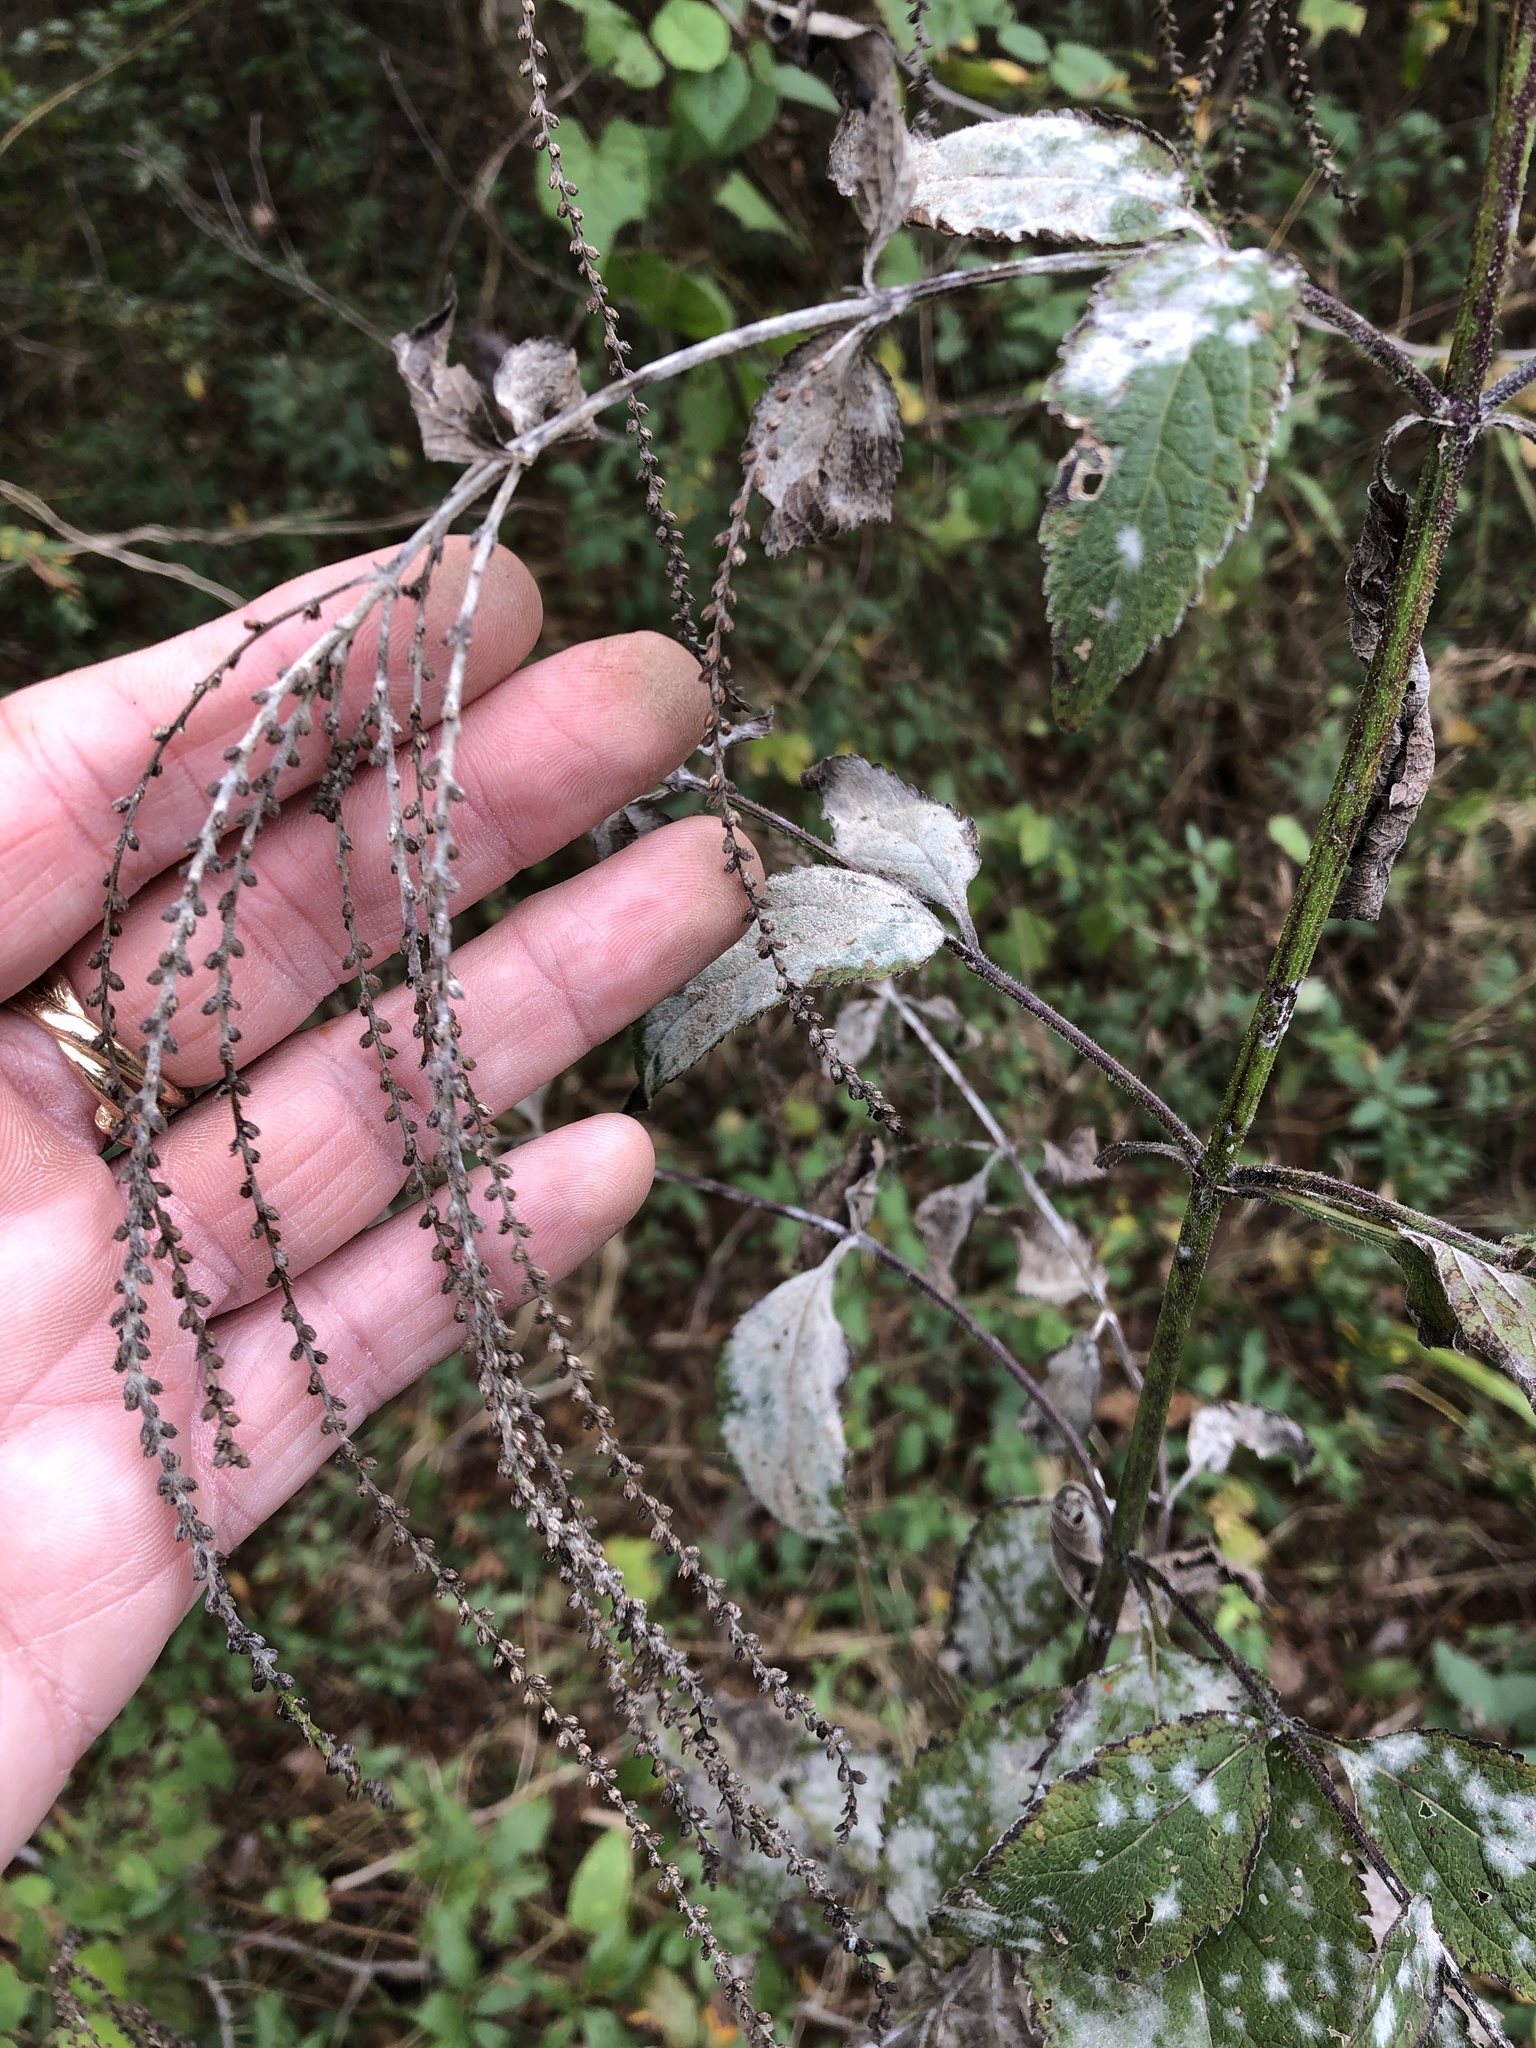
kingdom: Plantae
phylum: Tracheophyta
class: Magnoliopsida
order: Lamiales
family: Verbenaceae
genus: Verbena
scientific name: Verbena urticifolia
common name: Nettle-leaved vervain
